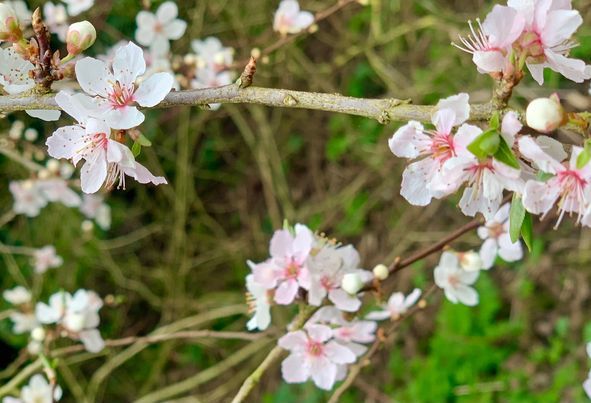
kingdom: Plantae
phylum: Tracheophyta
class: Magnoliopsida
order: Rosales
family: Rosaceae
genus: Prunus
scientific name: Prunus cerasifera
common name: Cherry plum
